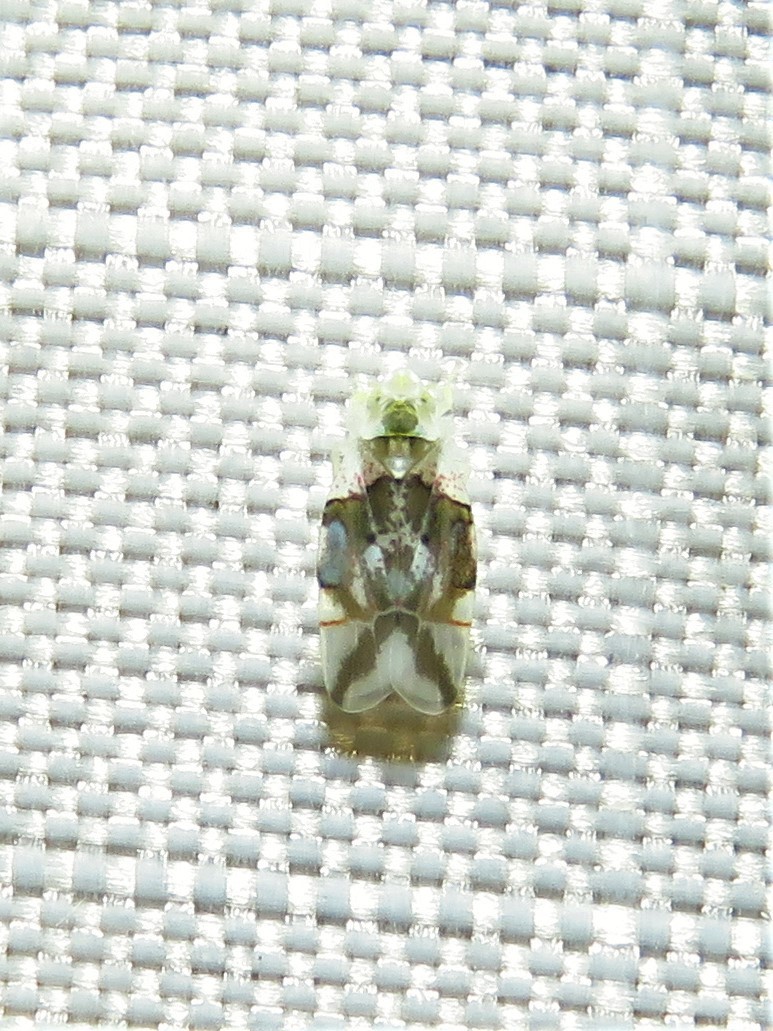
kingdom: Animalia
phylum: Arthropoda
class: Insecta
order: Hemiptera
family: Cicadellidae
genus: Hymetta
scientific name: Hymetta kansasensis
